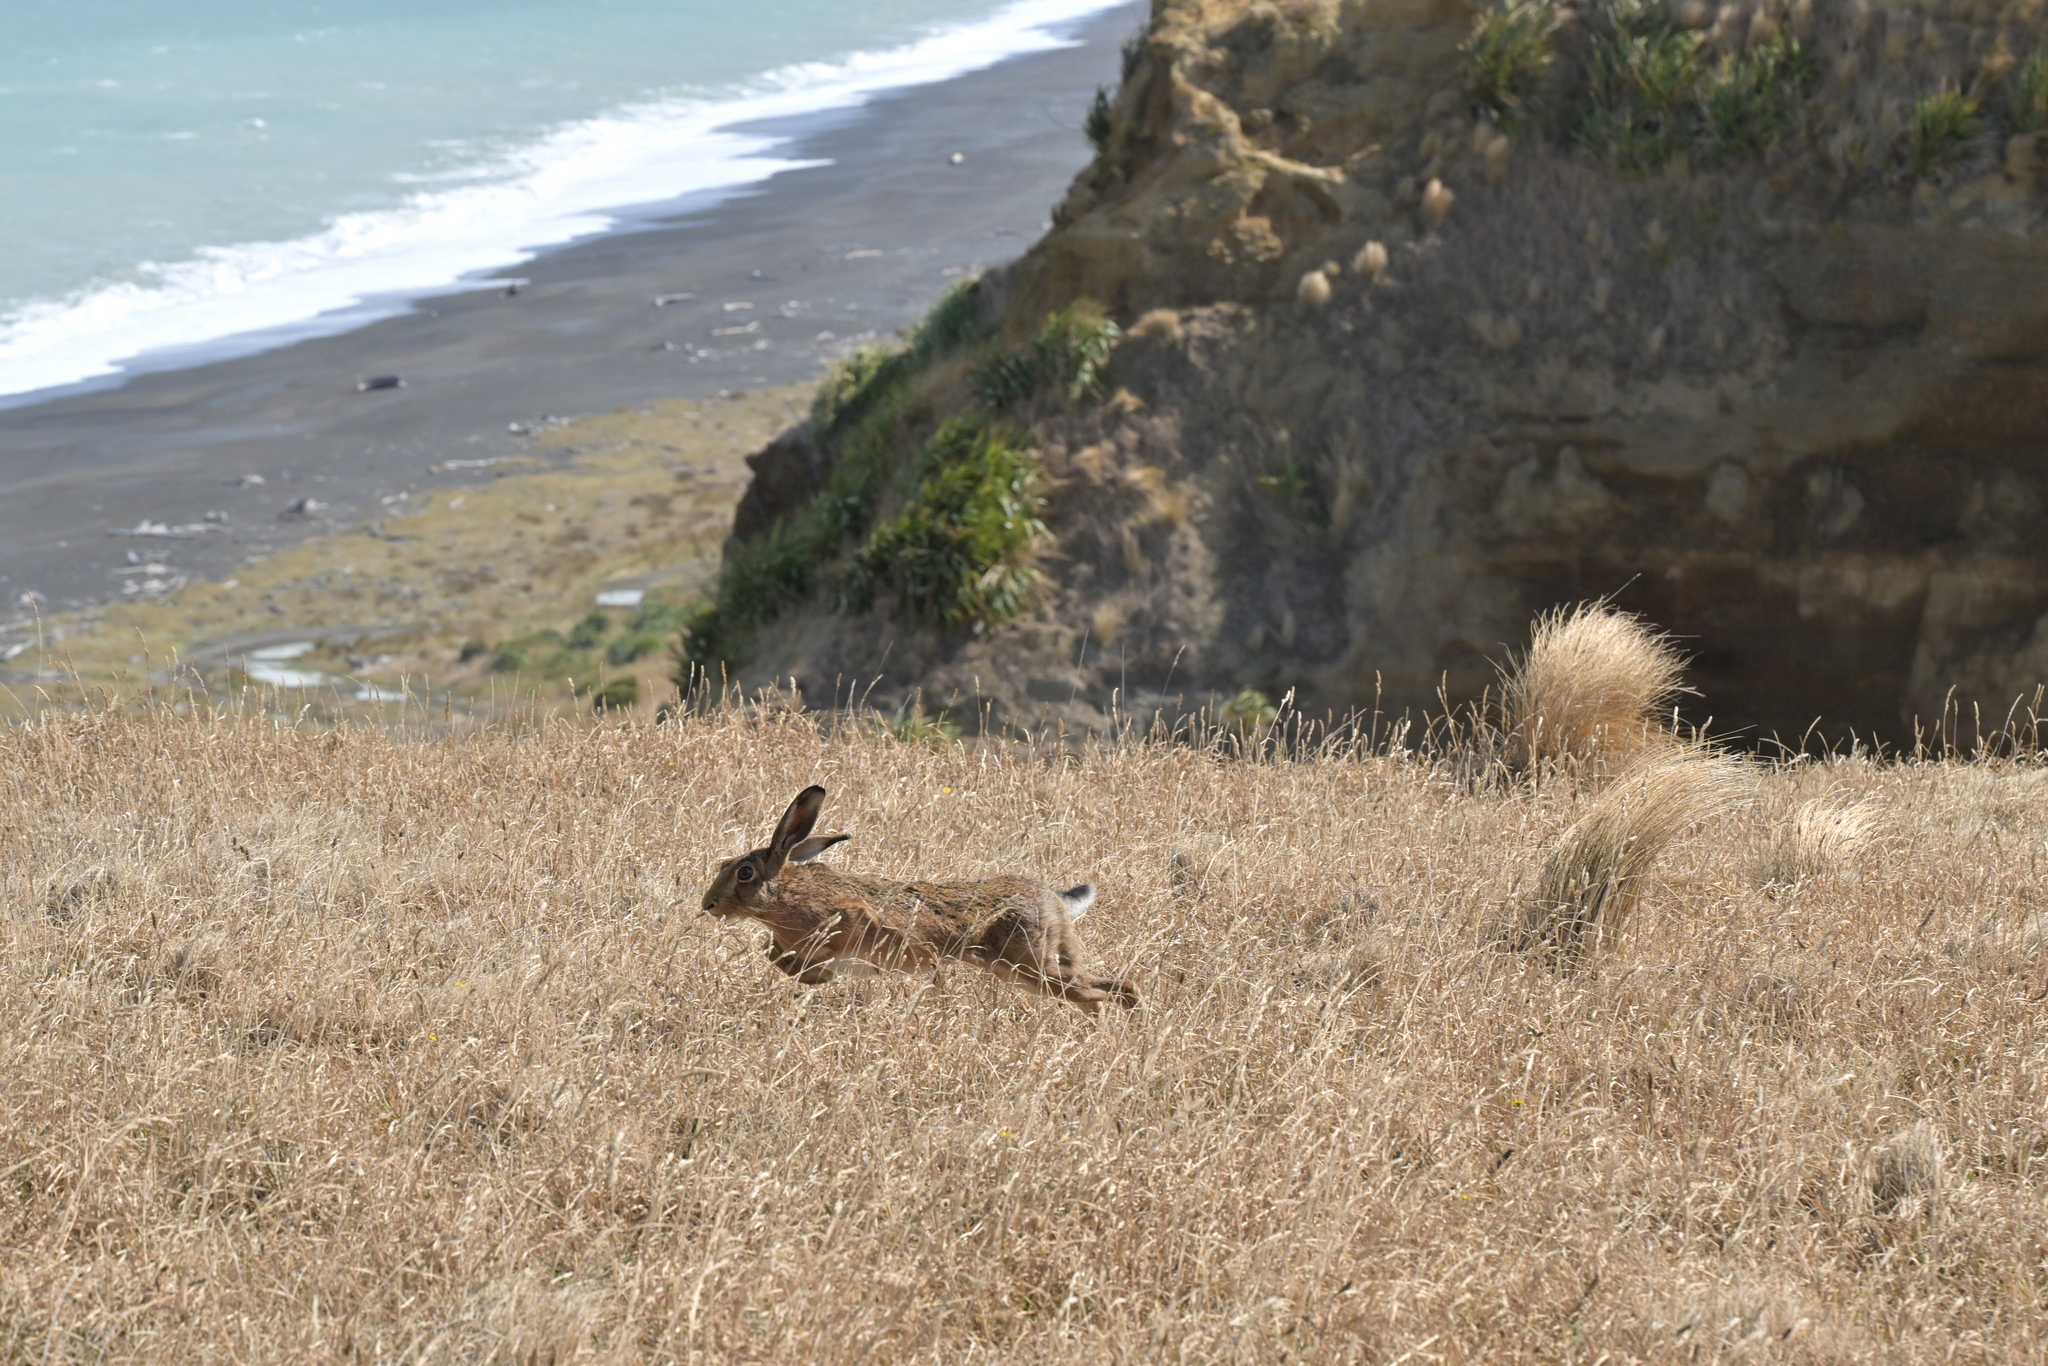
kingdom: Animalia
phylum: Chordata
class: Mammalia
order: Lagomorpha
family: Leporidae
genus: Lepus
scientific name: Lepus europaeus
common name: European hare
